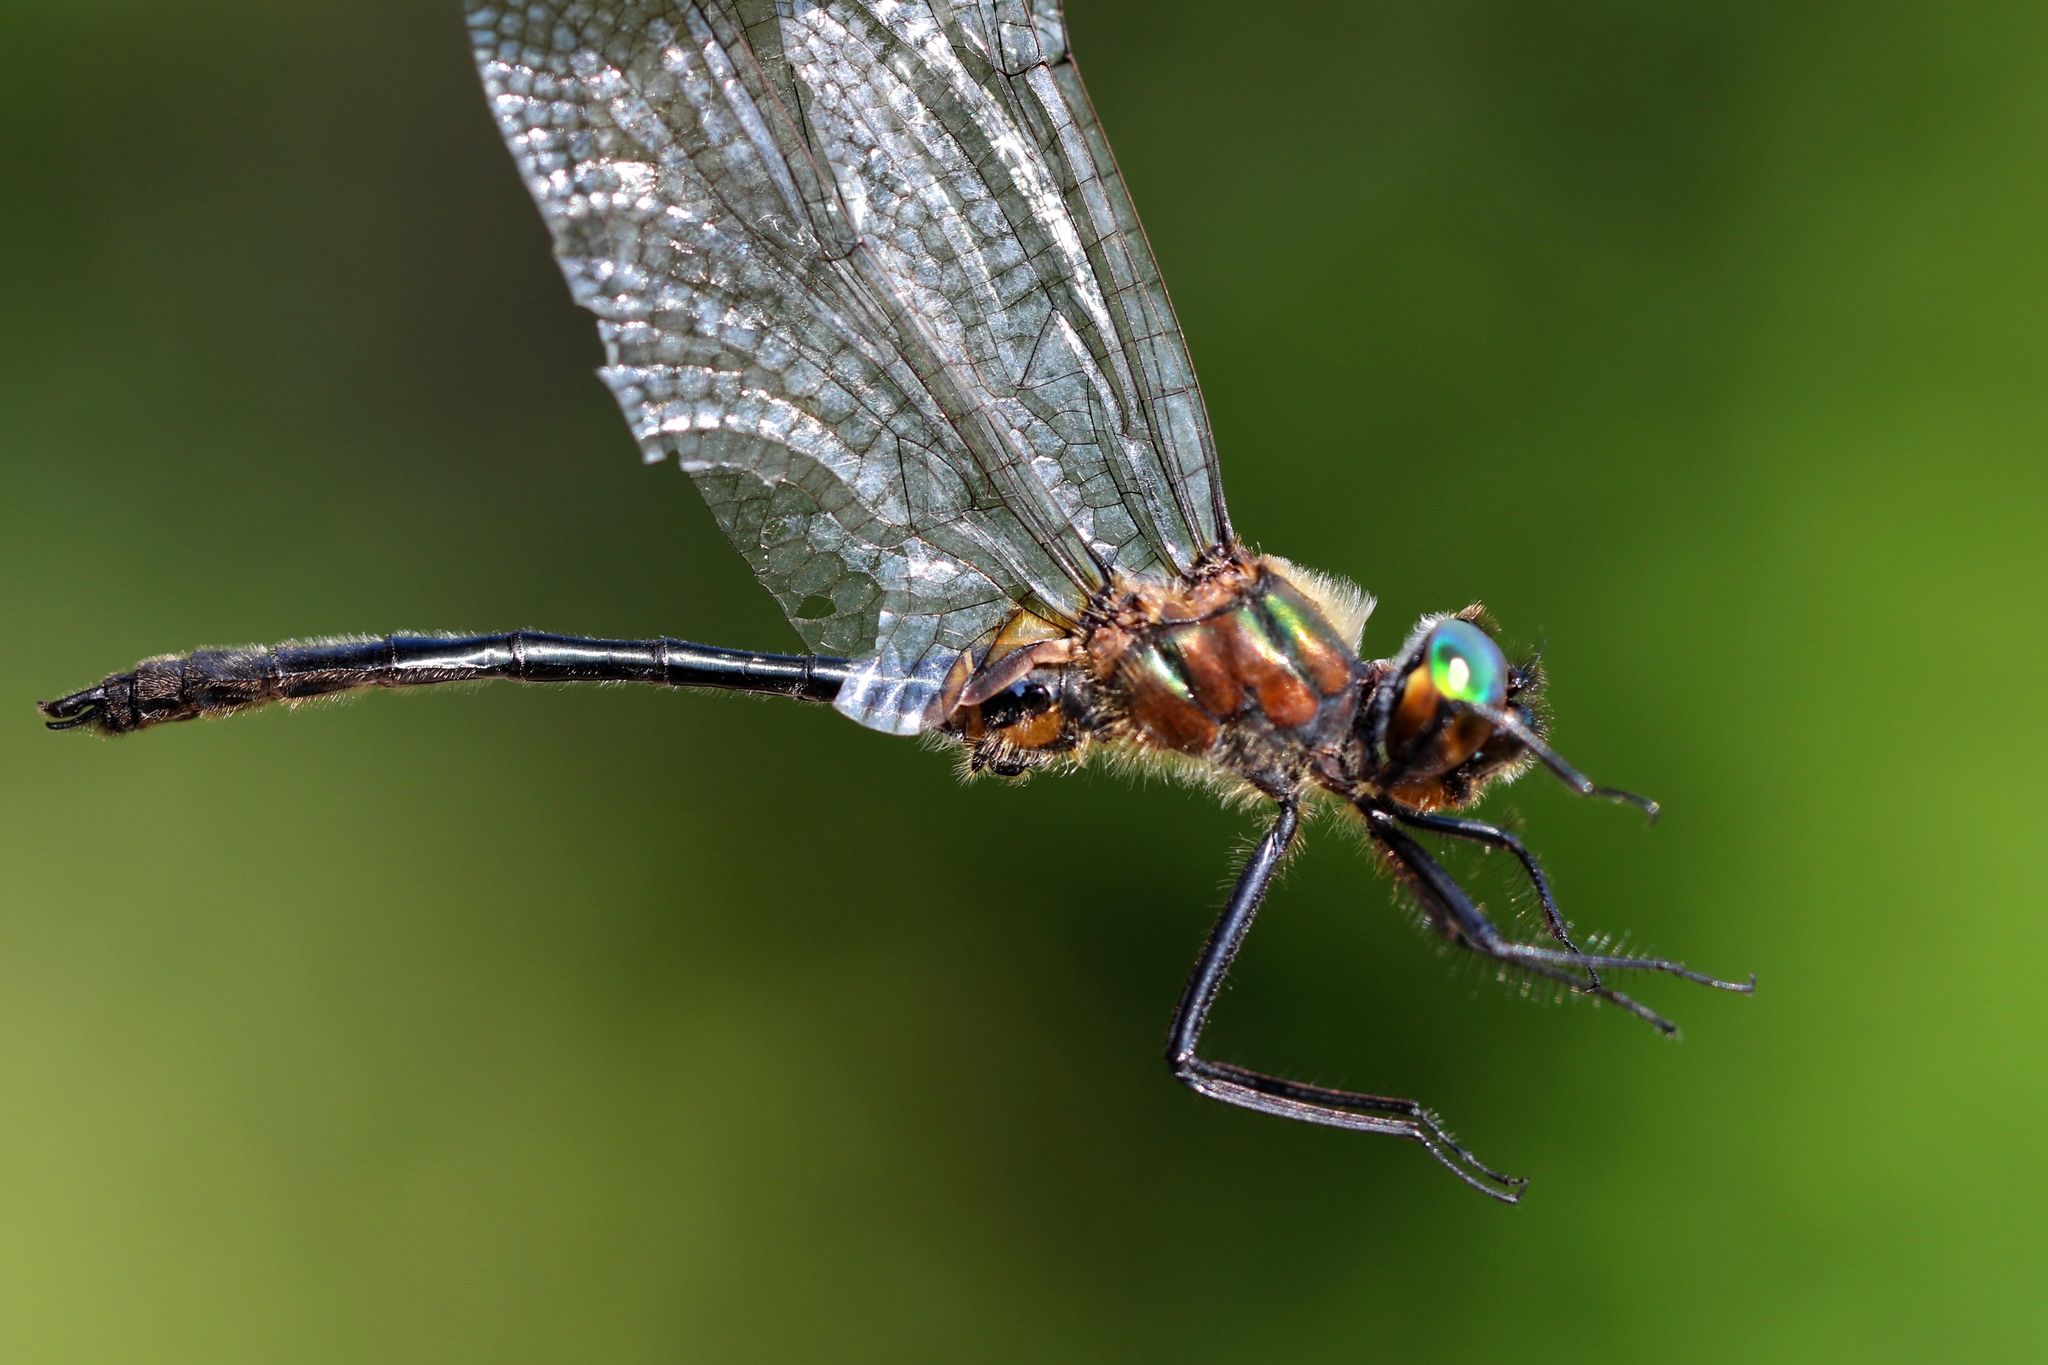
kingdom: Animalia
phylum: Arthropoda
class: Insecta
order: Odonata
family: Corduliidae
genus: Dorocordulia
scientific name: Dorocordulia libera
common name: Racket-tailed emerald
